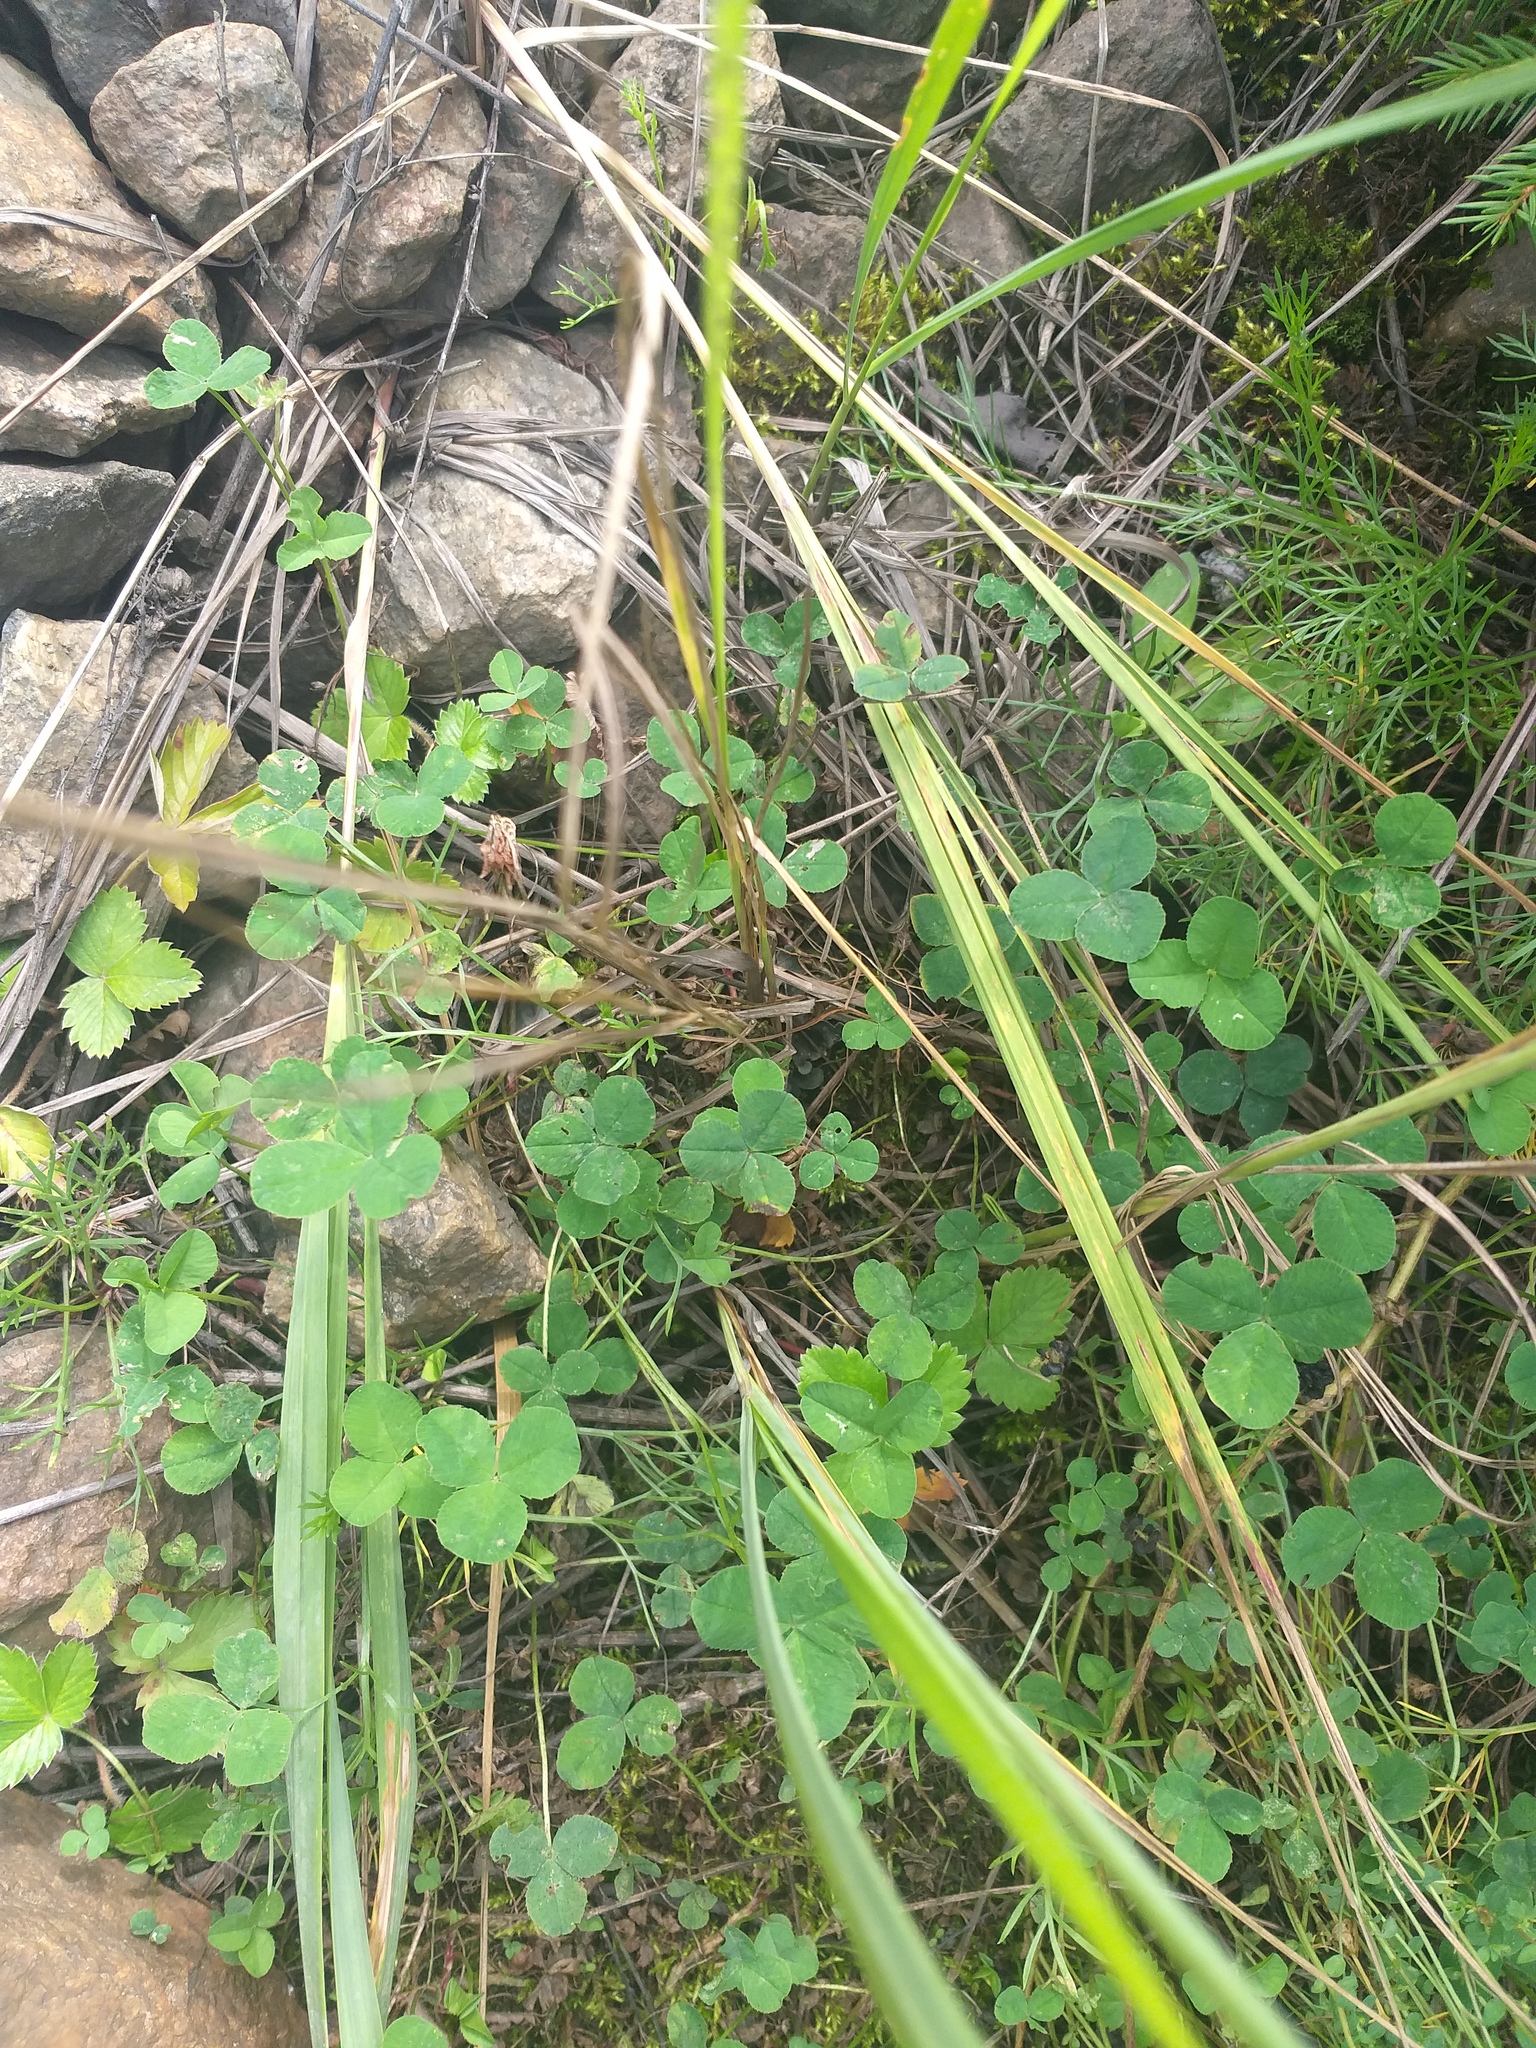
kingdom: Plantae
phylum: Tracheophyta
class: Magnoliopsida
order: Fabales
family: Fabaceae
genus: Trifolium
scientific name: Trifolium repens
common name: White clover
